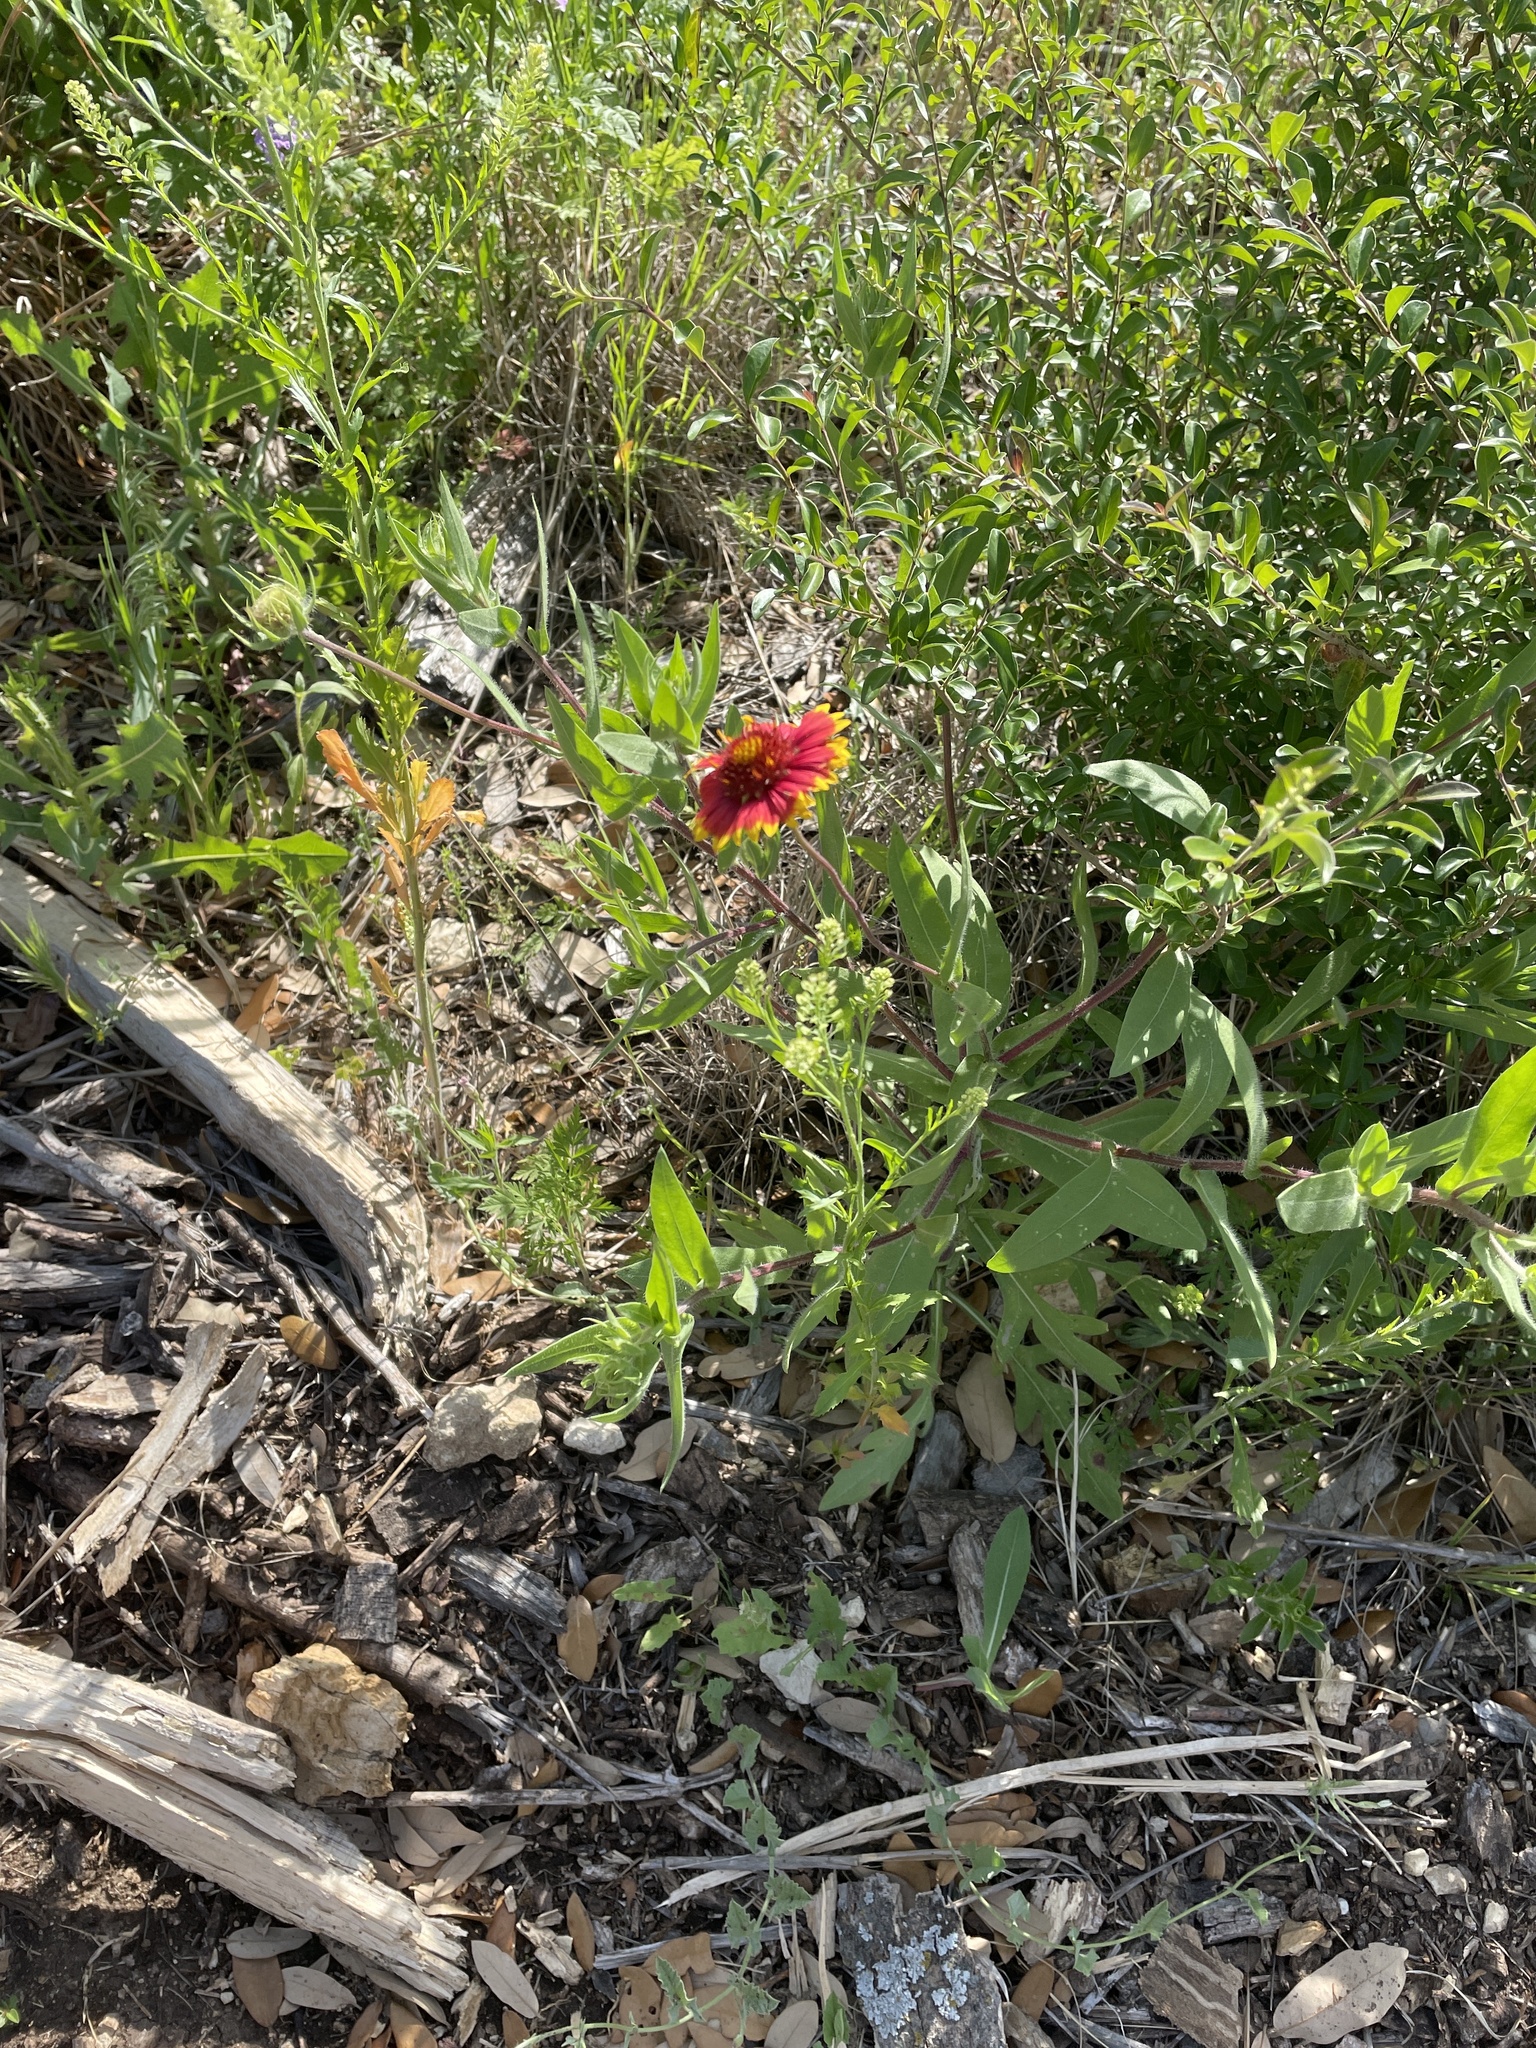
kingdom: Plantae
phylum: Tracheophyta
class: Magnoliopsida
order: Asterales
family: Asteraceae
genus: Gaillardia
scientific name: Gaillardia pulchella
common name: Firewheel
